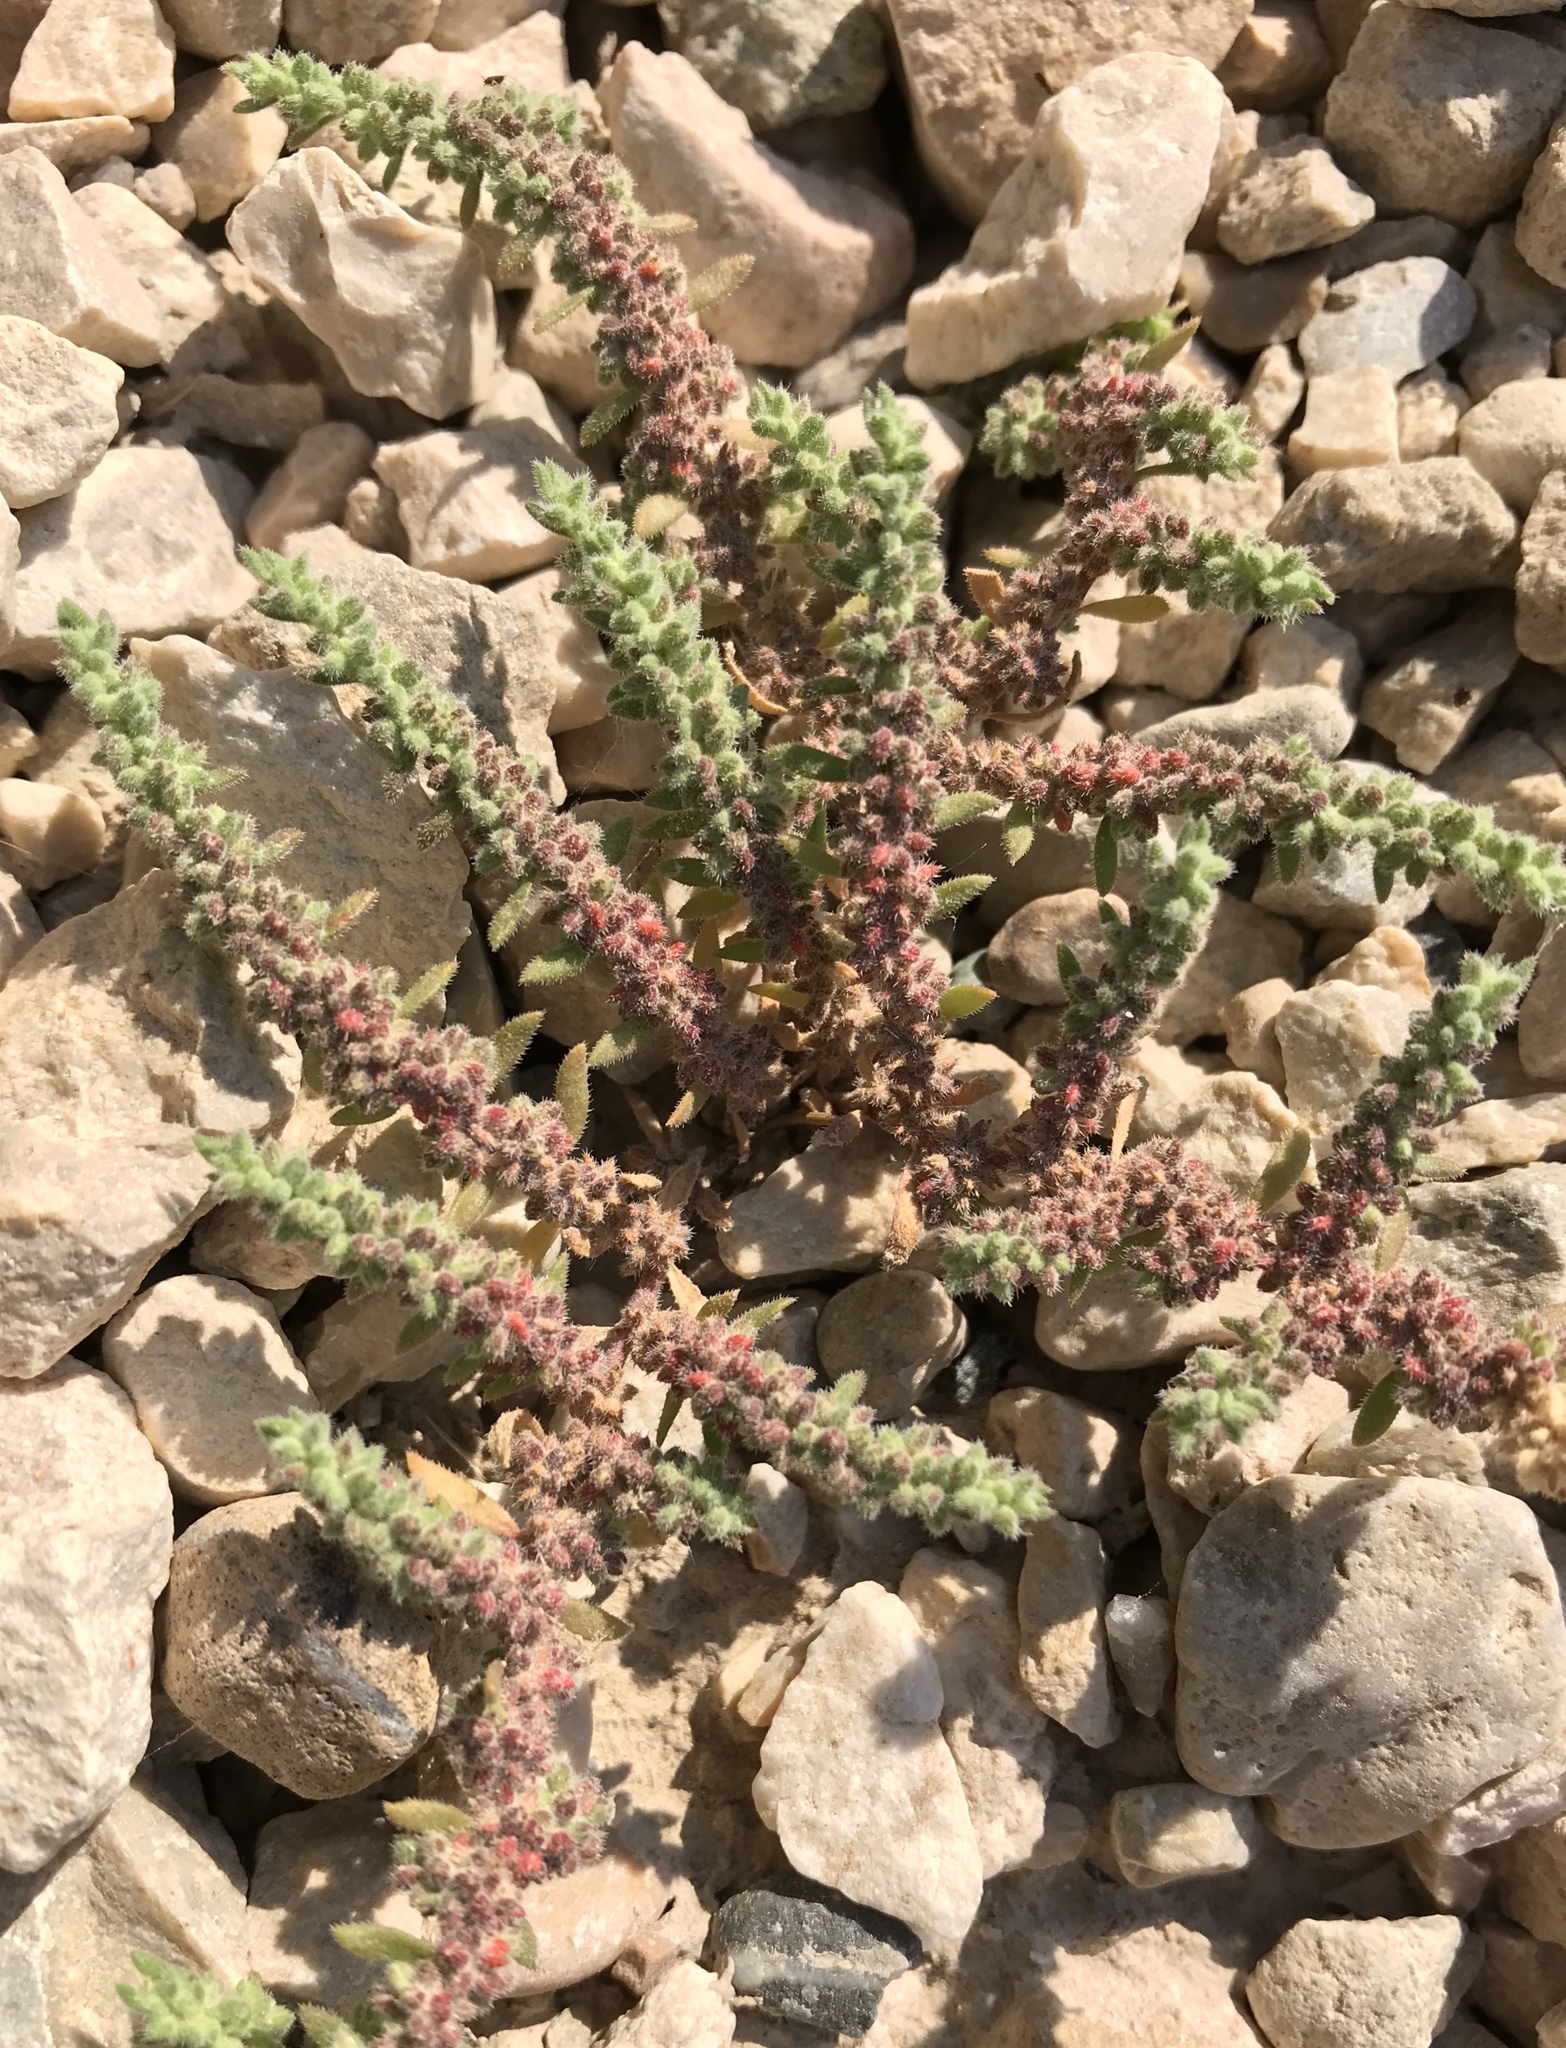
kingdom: Plantae
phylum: Tracheophyta
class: Magnoliopsida
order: Caryophyllales
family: Caryophyllaceae
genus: Herniaria
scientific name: Herniaria hirsuta
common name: Hairy rupturewort
